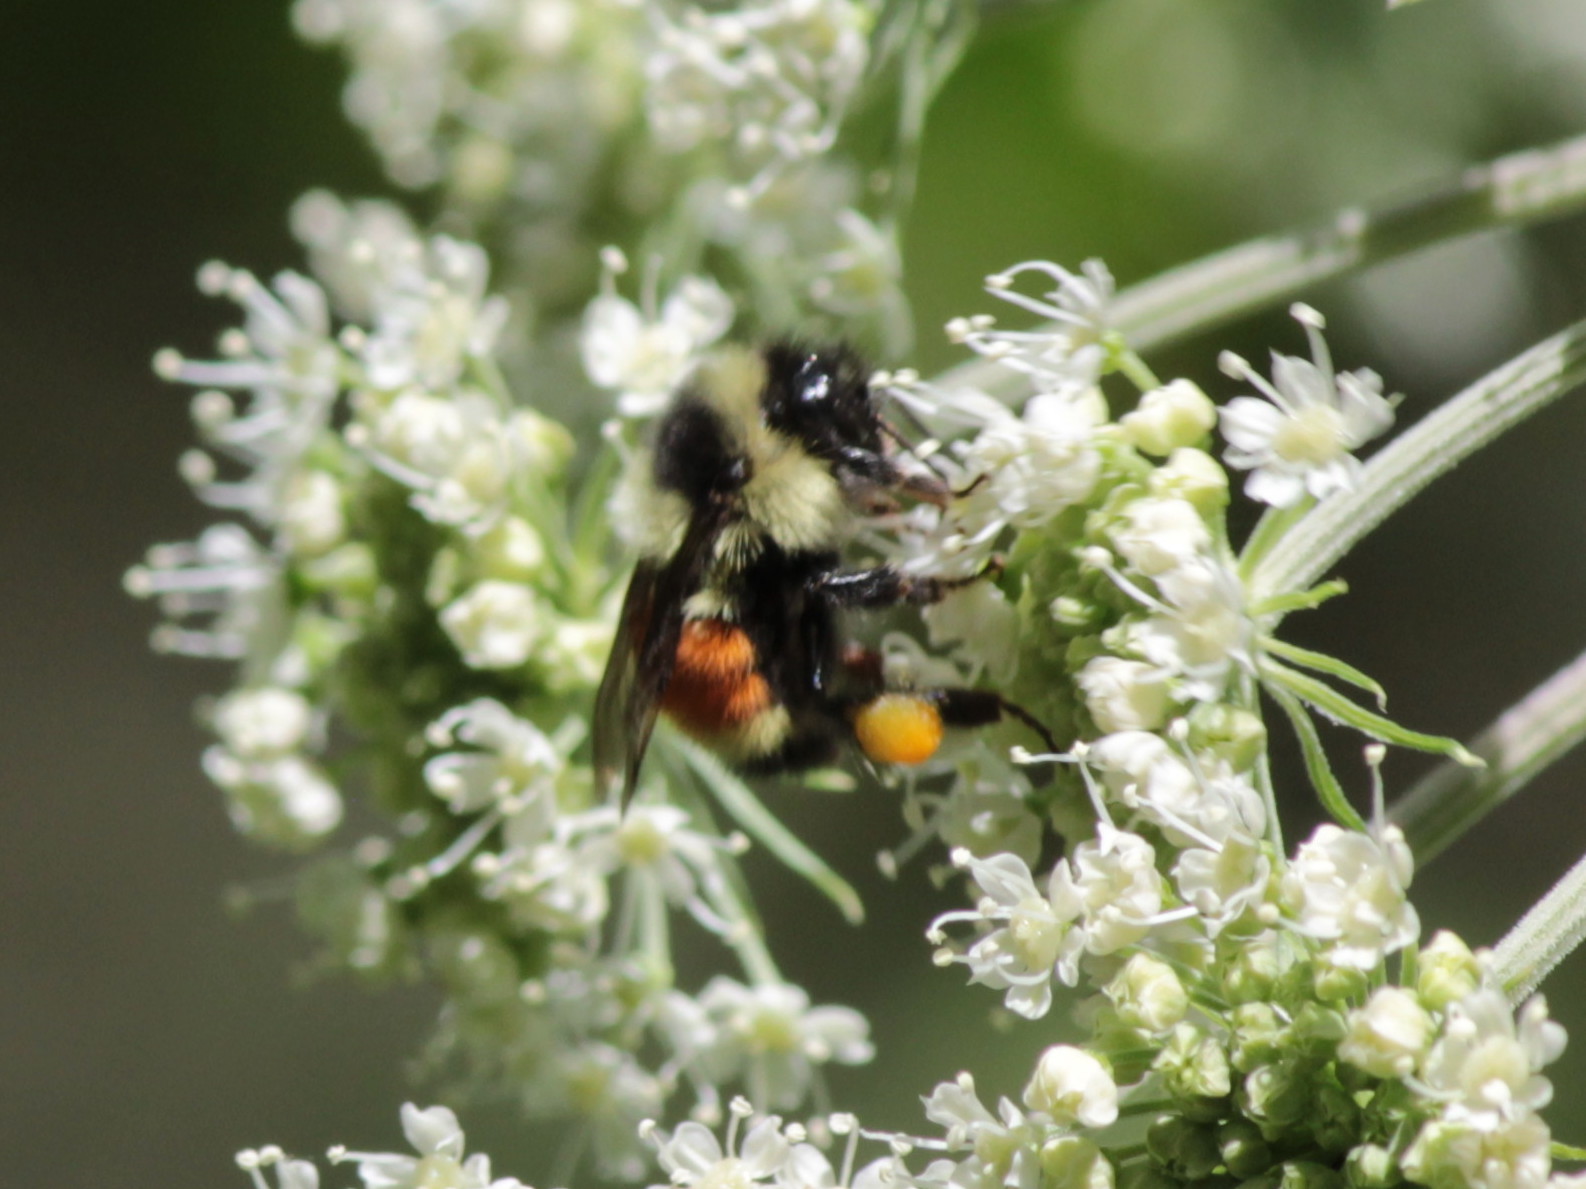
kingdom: Animalia
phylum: Arthropoda
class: Insecta
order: Hymenoptera
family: Apidae
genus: Bombus
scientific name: Bombus ternarius
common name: Tri-colored bumble bee
